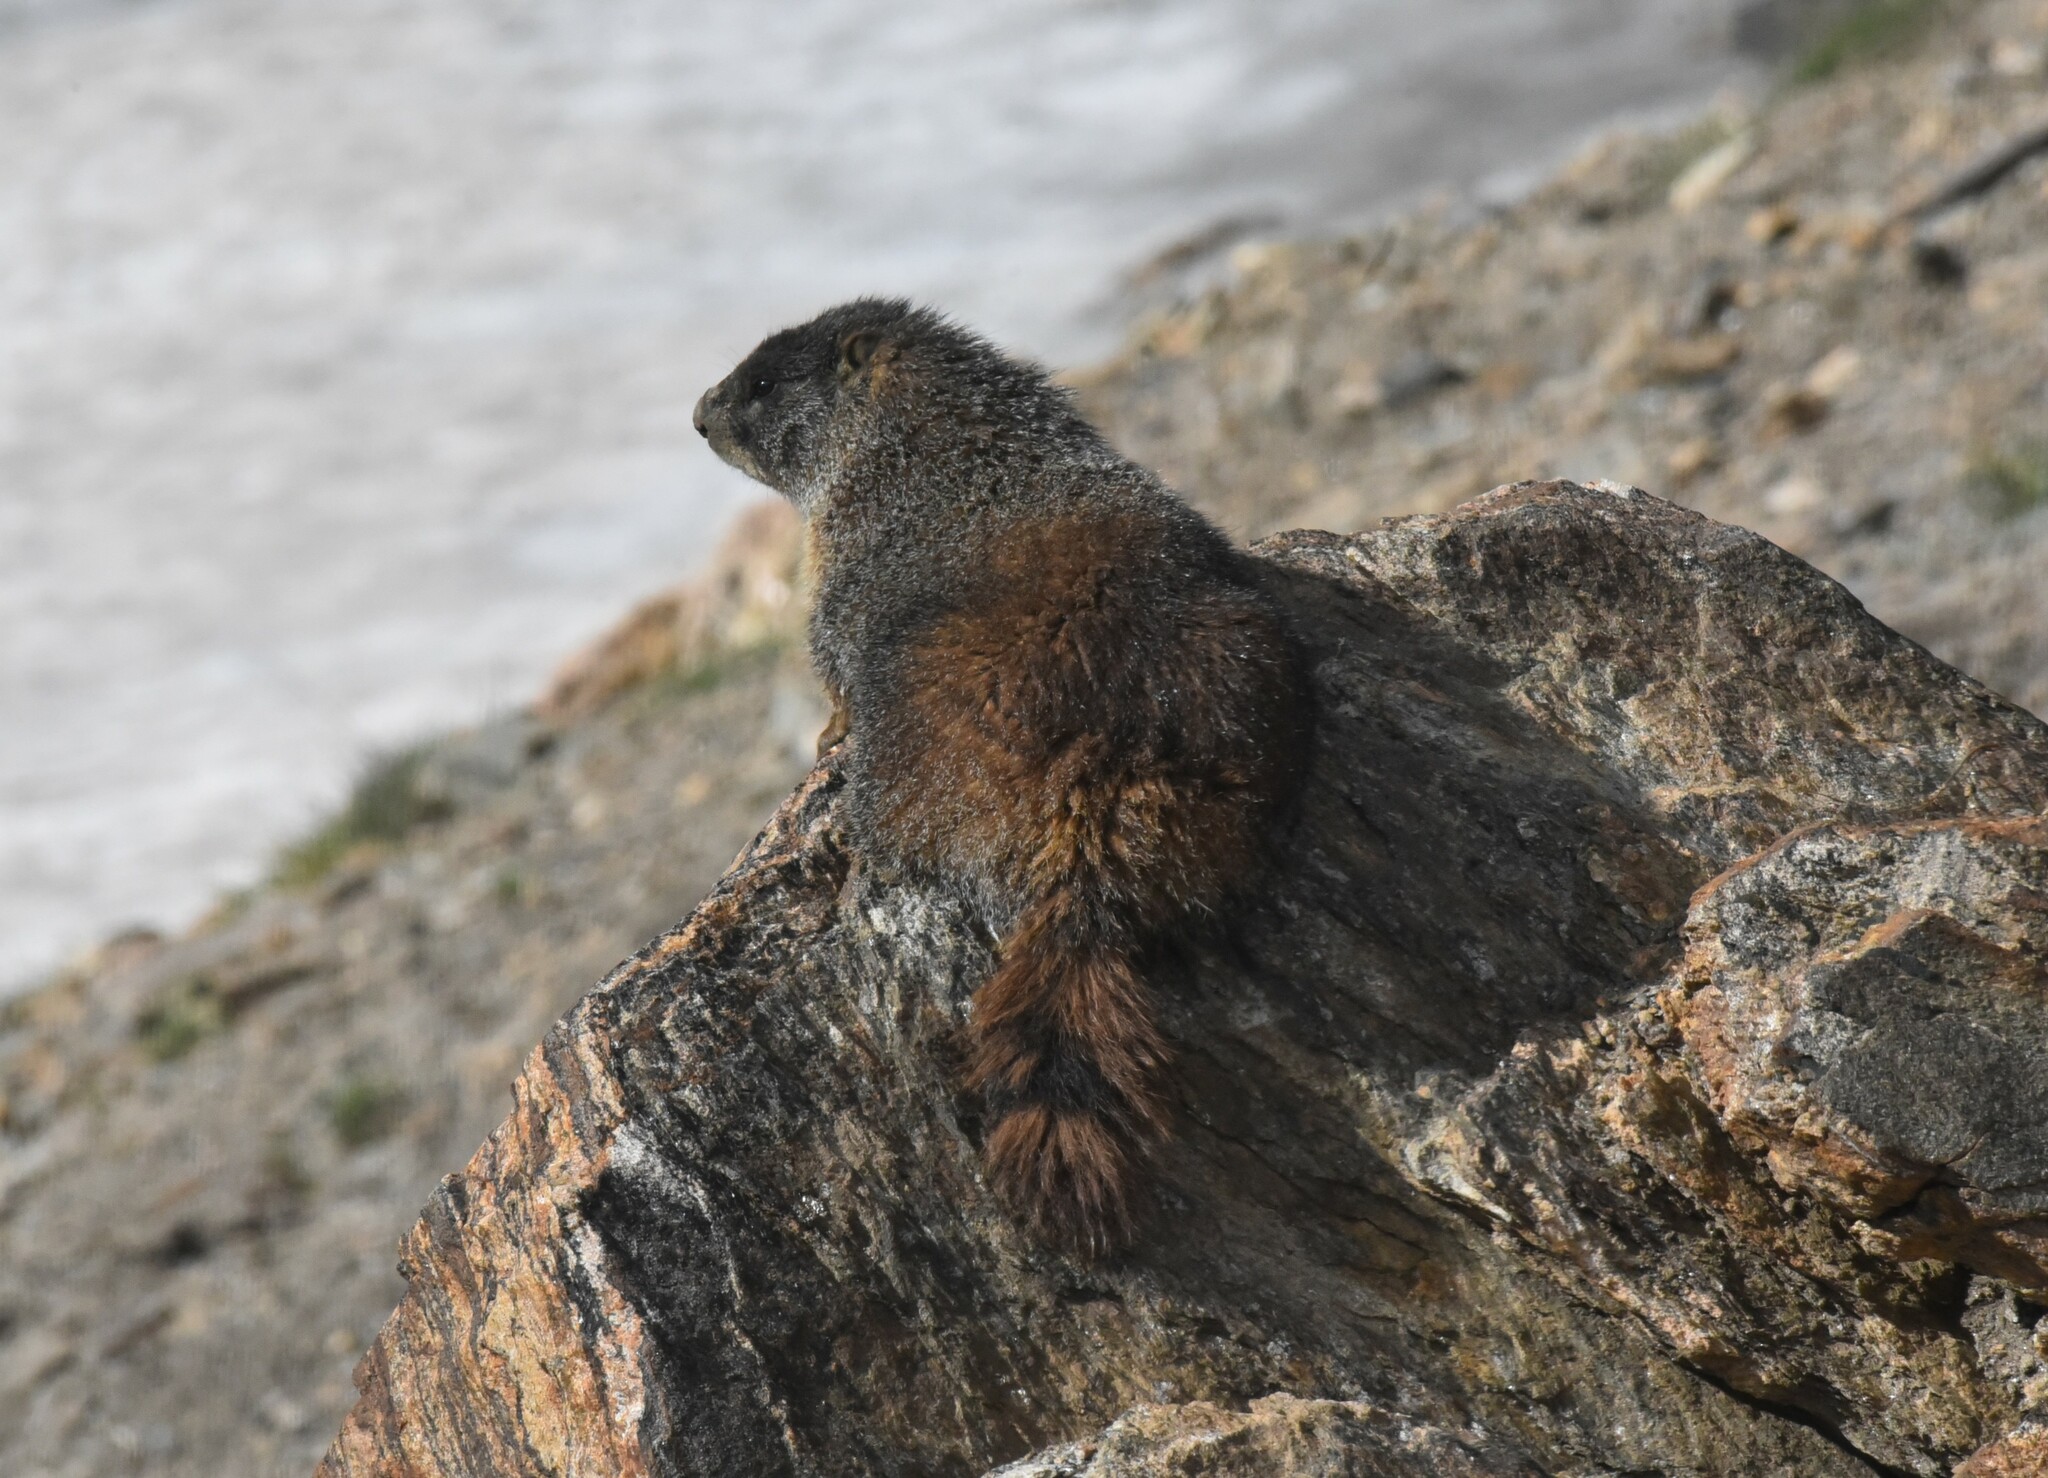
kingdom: Animalia
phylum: Chordata
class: Mammalia
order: Rodentia
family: Sciuridae
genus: Marmota
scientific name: Marmota flaviventris
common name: Yellow-bellied marmot
